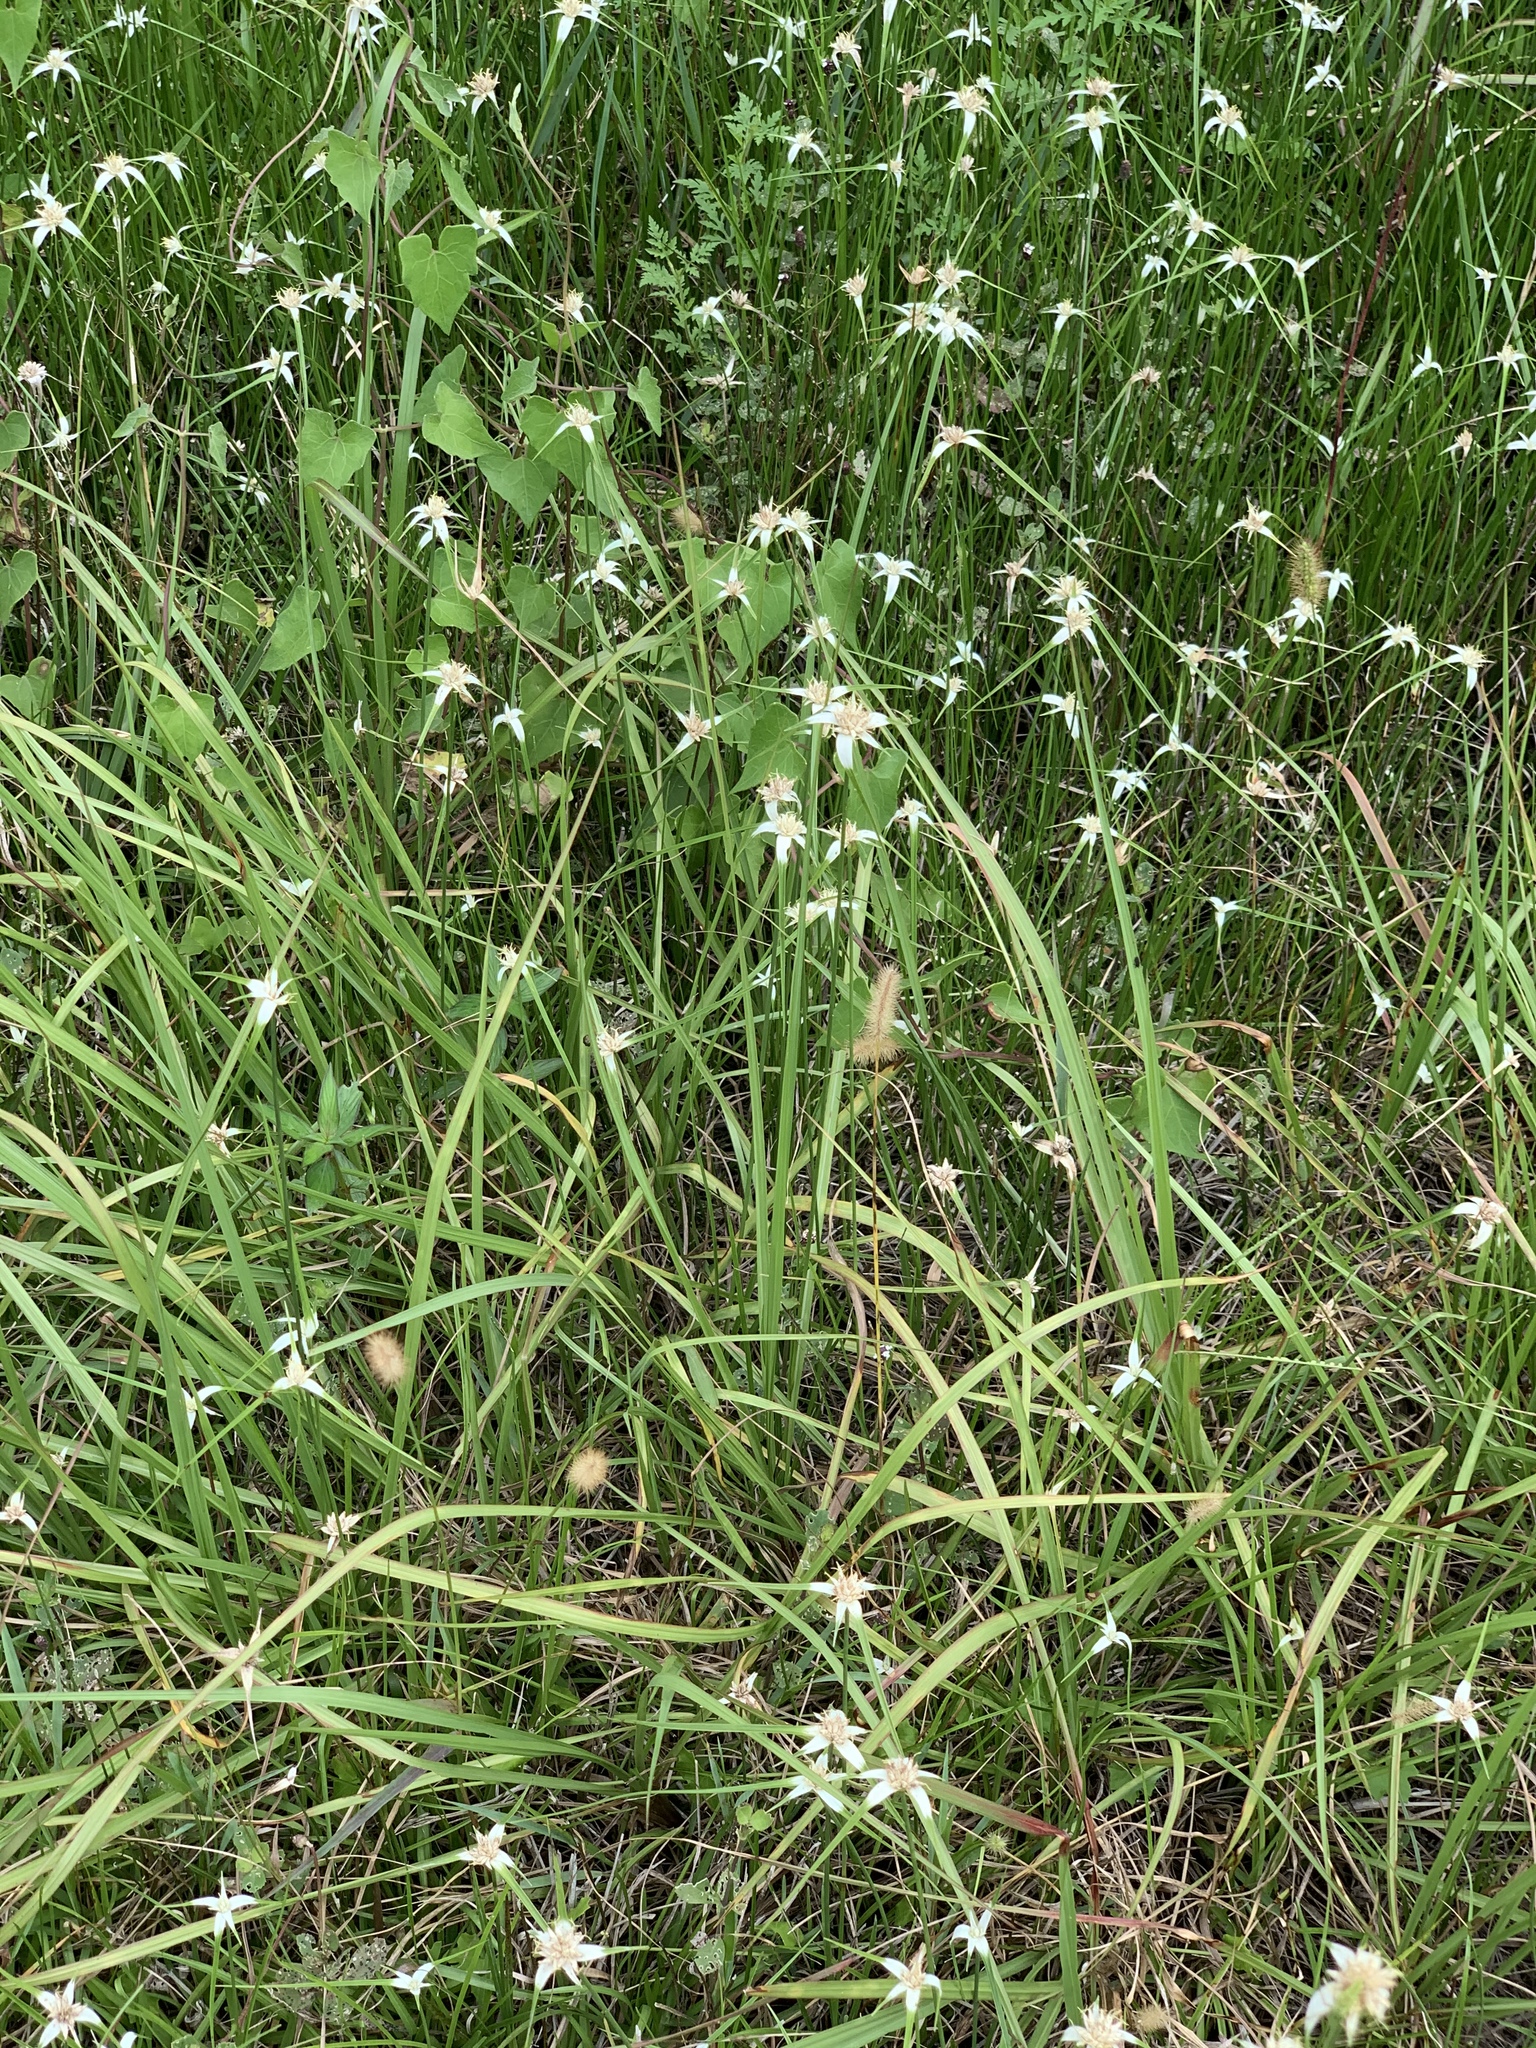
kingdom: Plantae
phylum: Tracheophyta
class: Liliopsida
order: Poales
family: Cyperaceae
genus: Rhynchospora
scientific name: Rhynchospora colorata
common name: Star sedge
